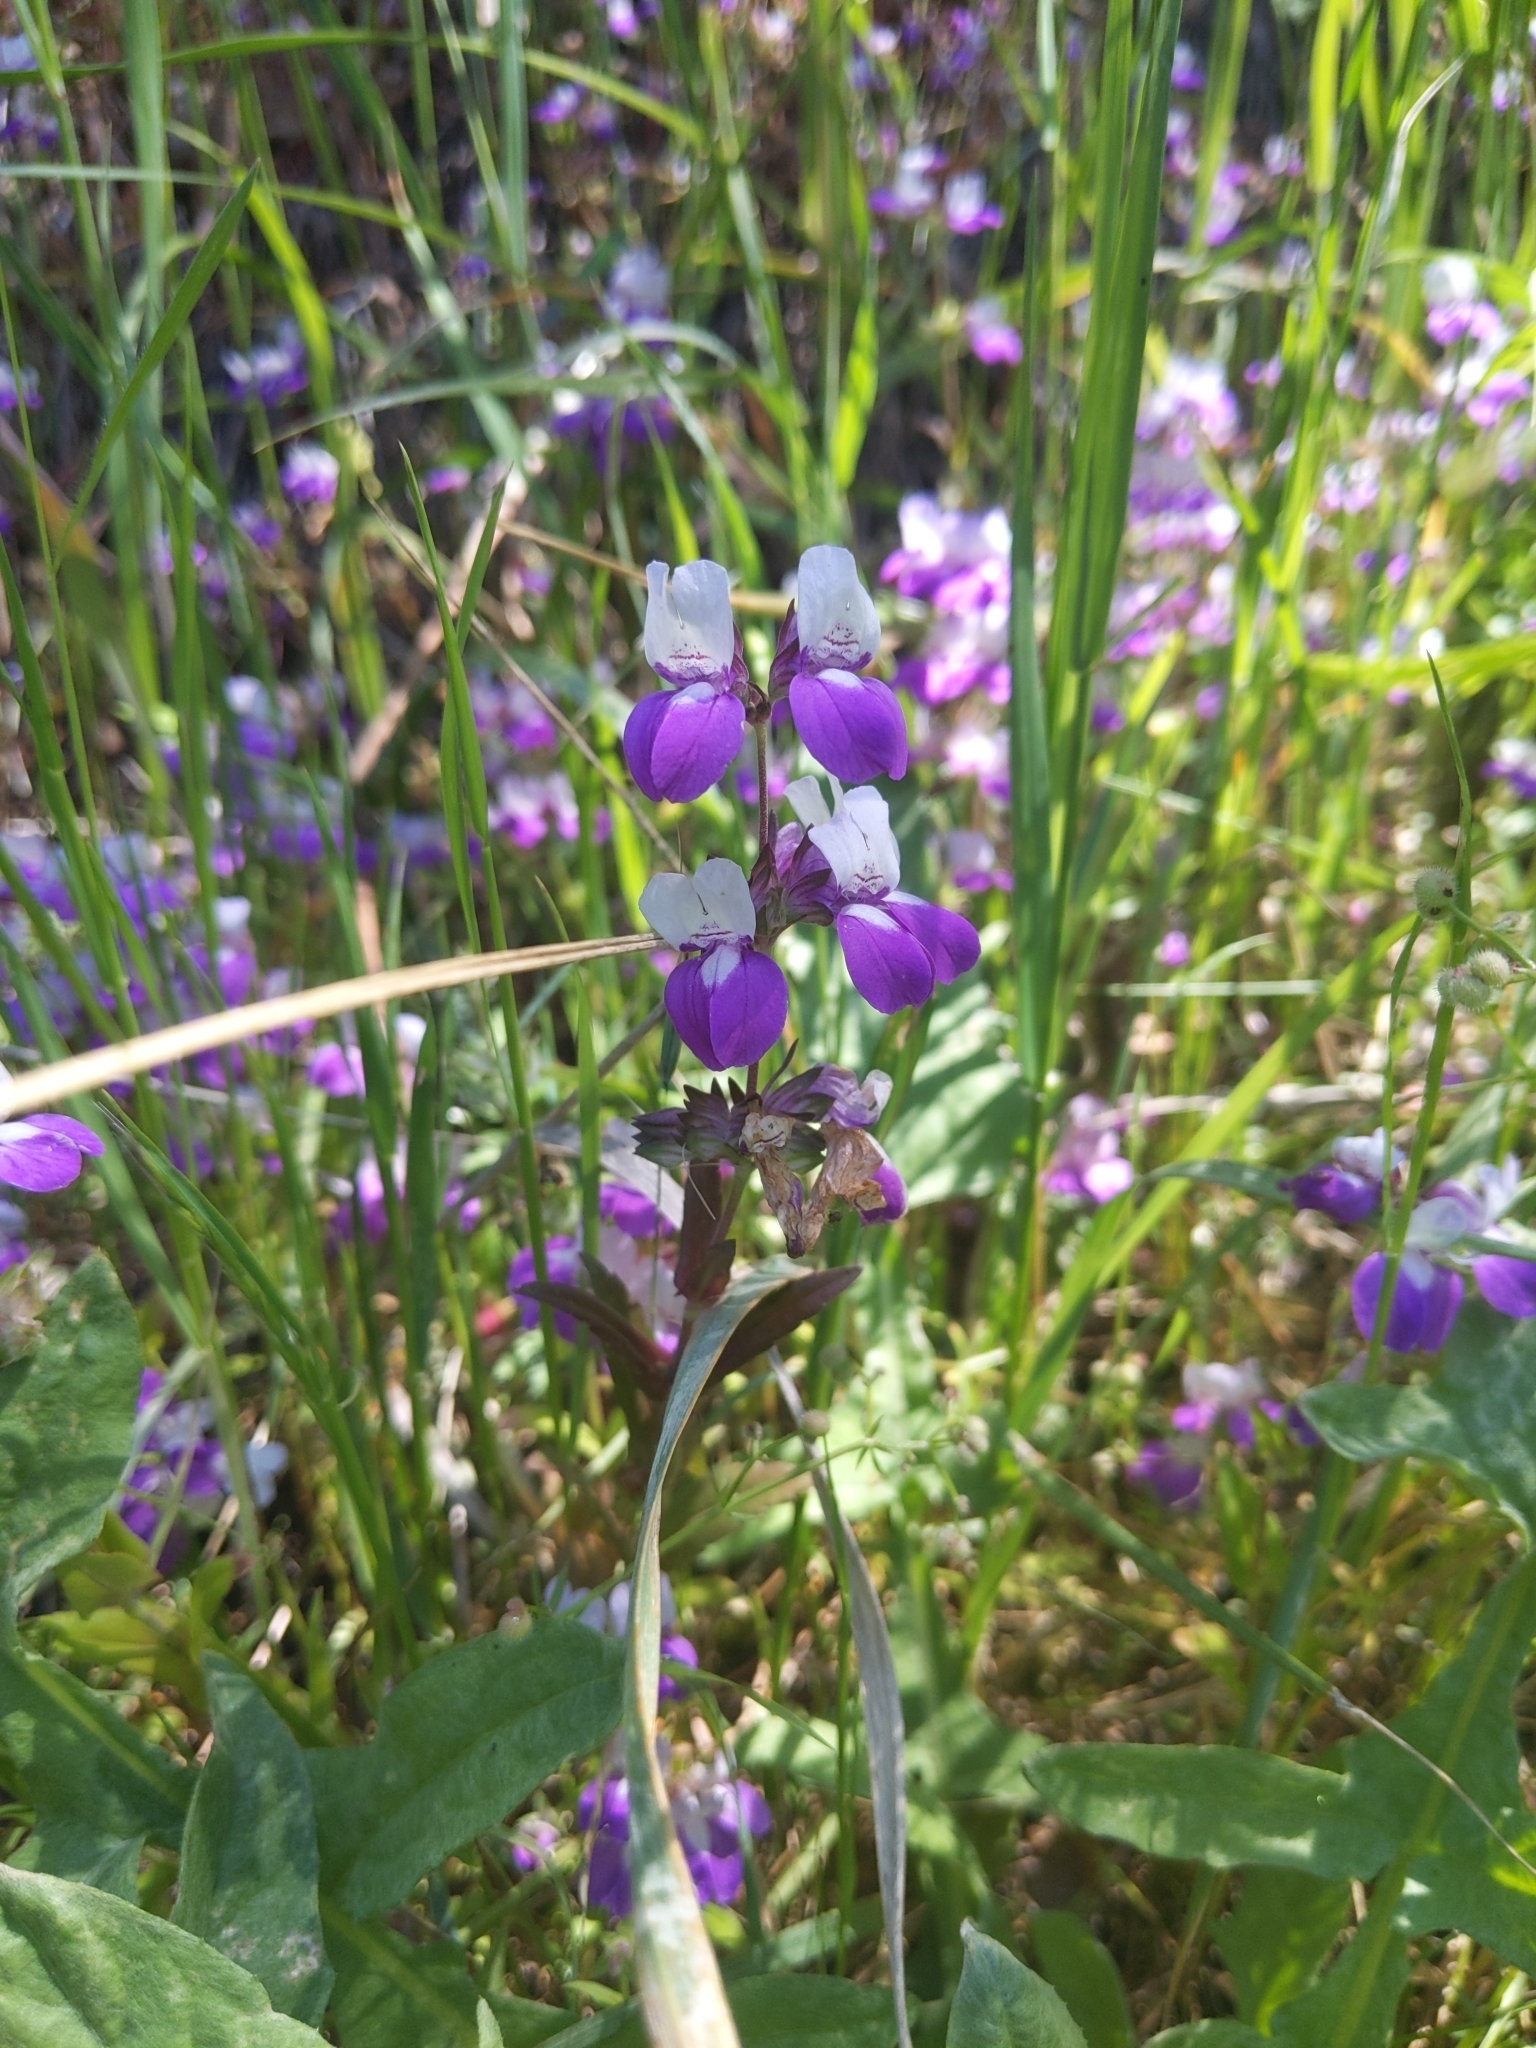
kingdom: Plantae
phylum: Tracheophyta
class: Magnoliopsida
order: Lamiales
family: Plantaginaceae
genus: Collinsia
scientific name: Collinsia heterophylla
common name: Chinese-houses
